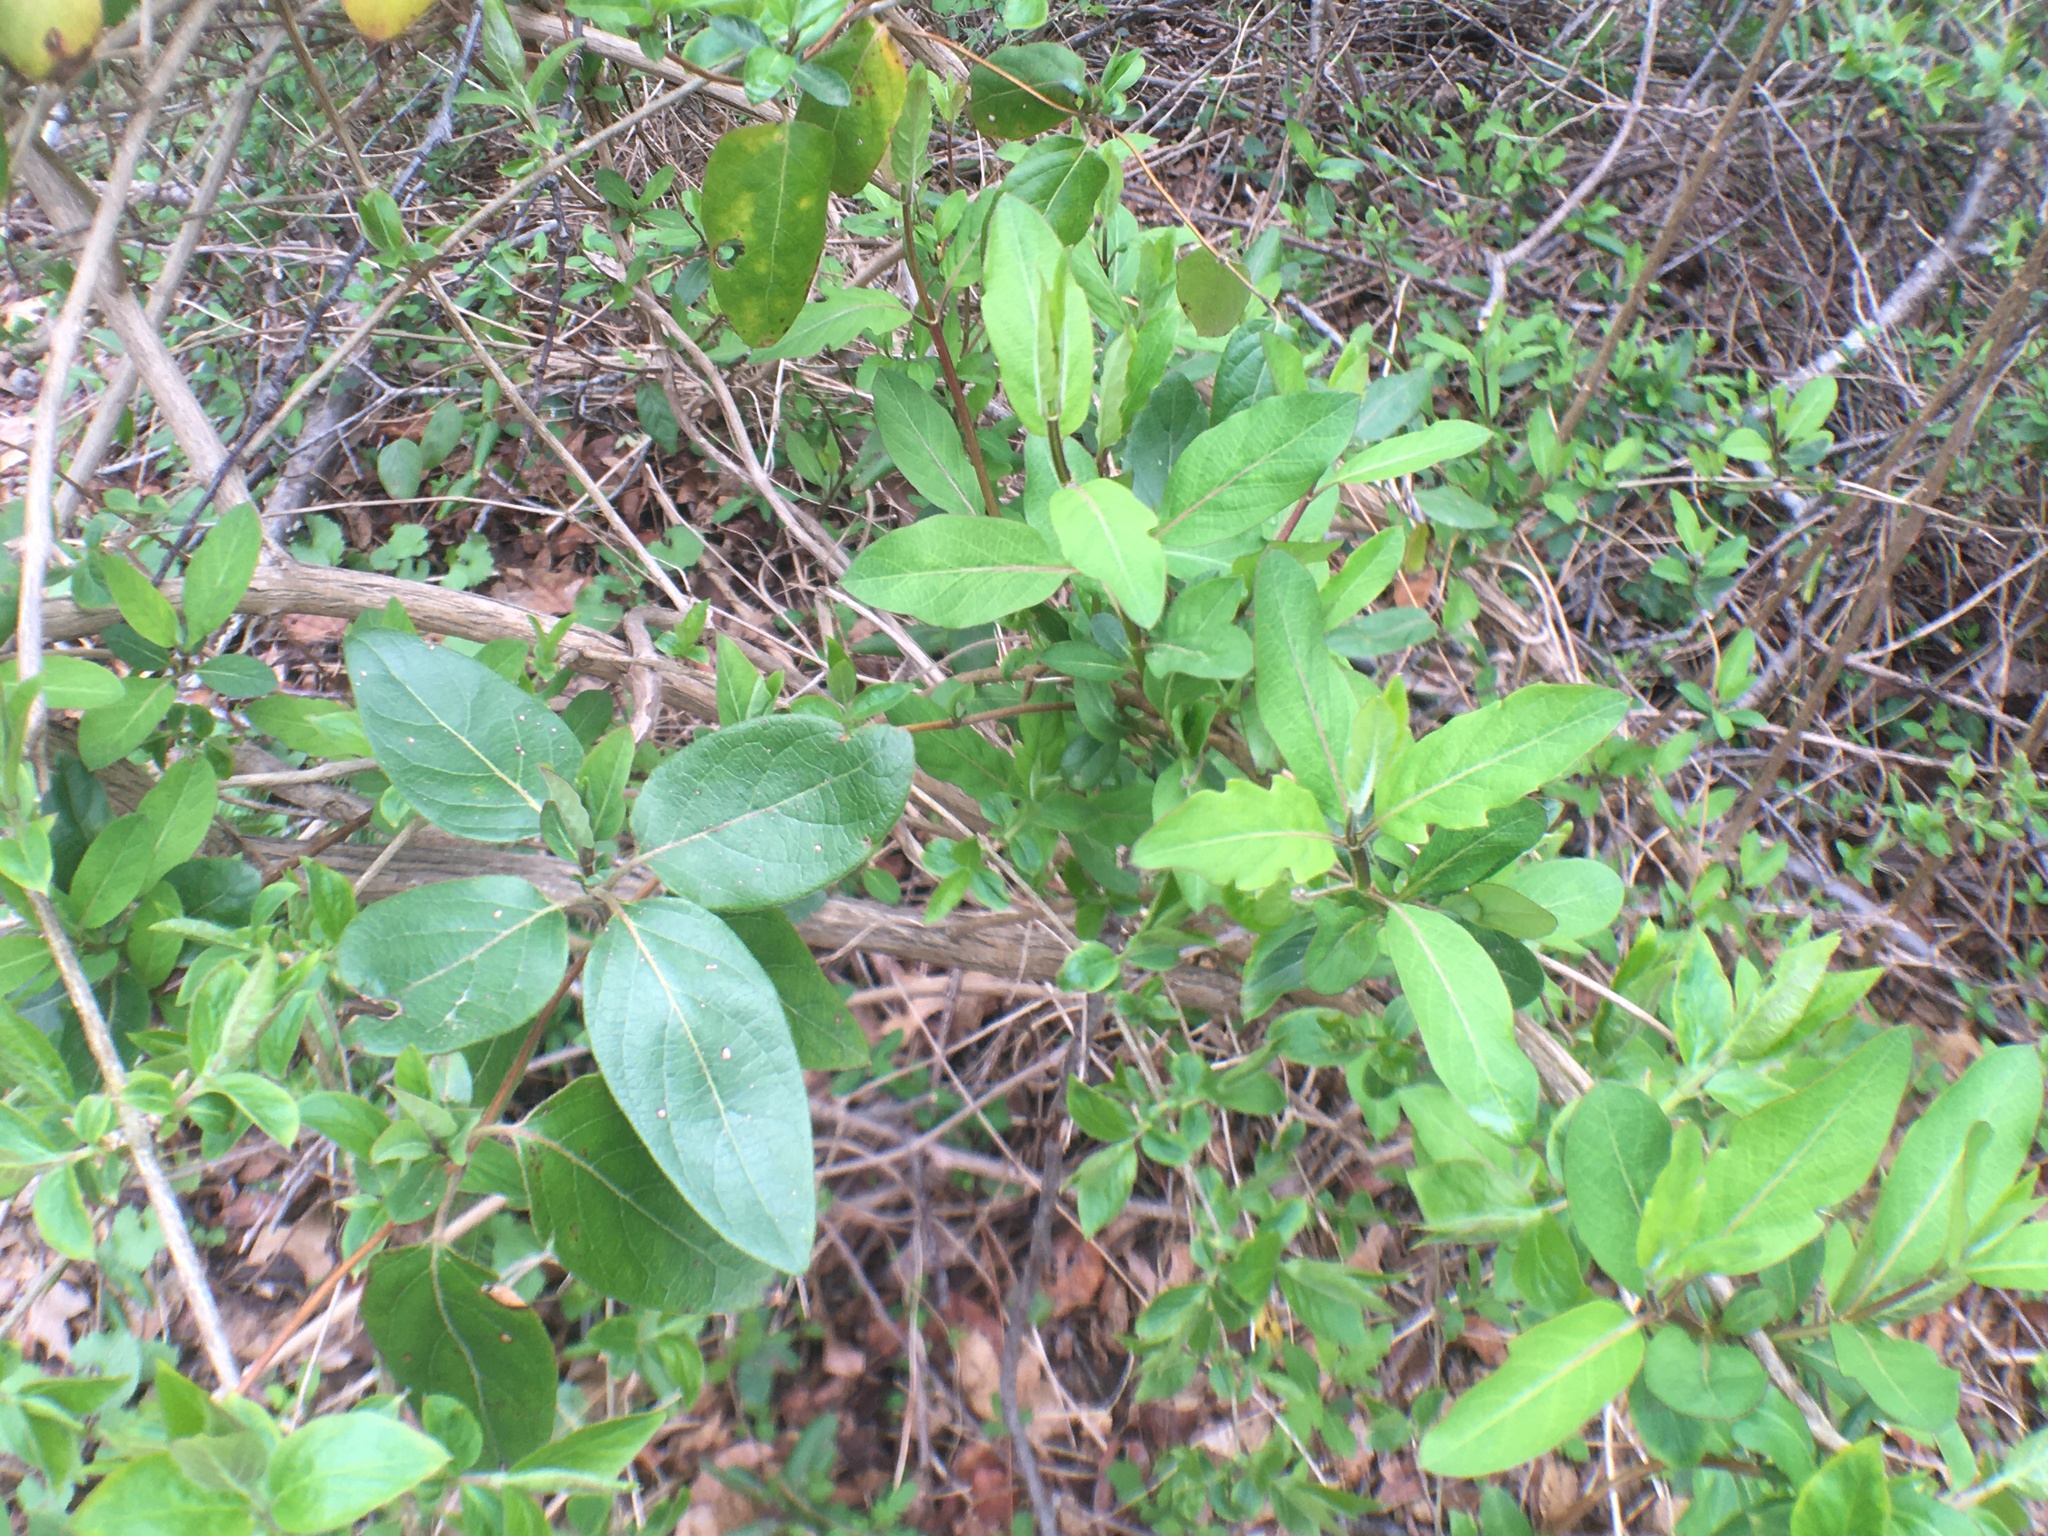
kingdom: Plantae
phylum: Tracheophyta
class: Magnoliopsida
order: Dipsacales
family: Caprifoliaceae
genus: Lonicera
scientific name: Lonicera japonica
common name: Japanese honeysuckle
